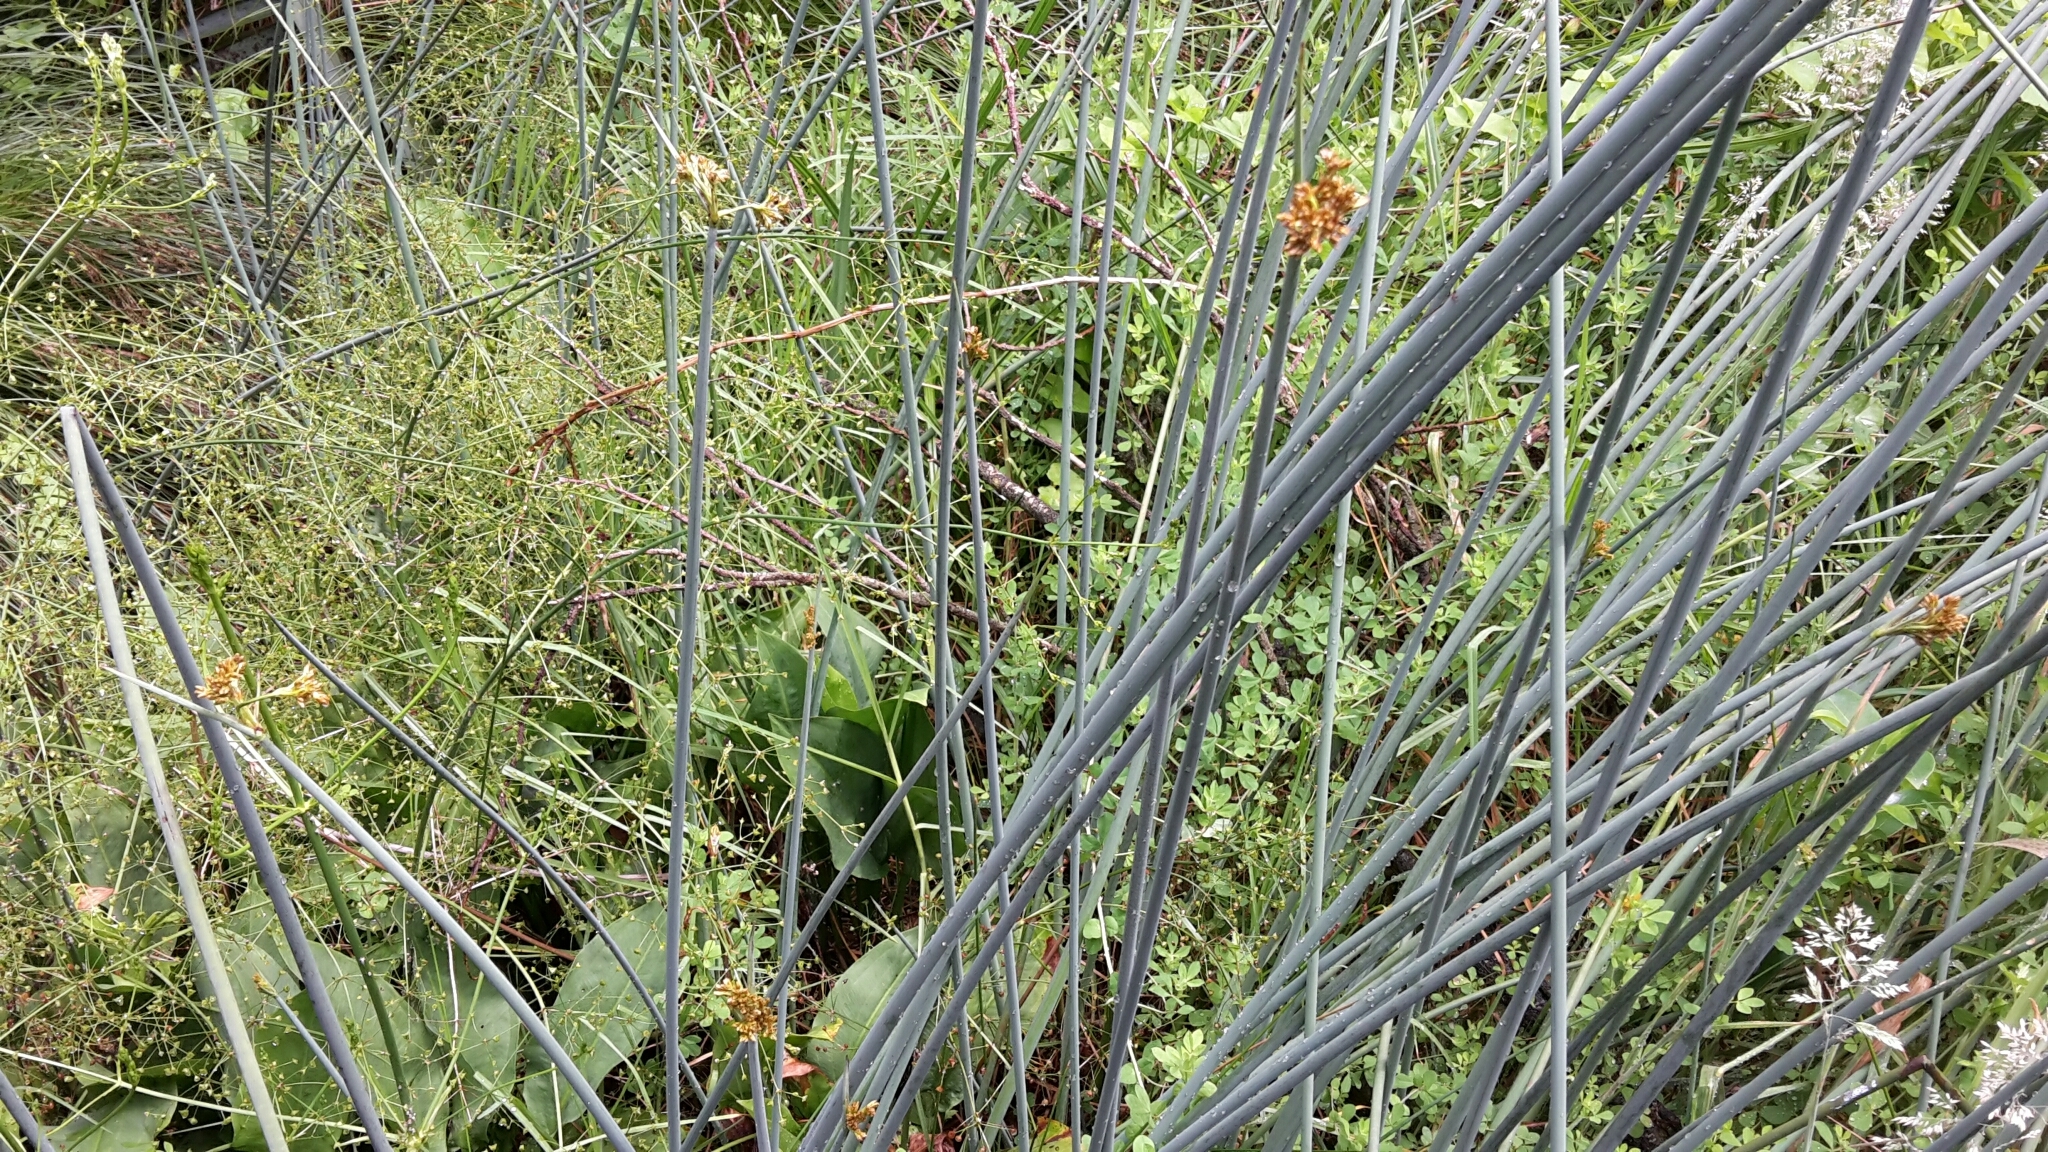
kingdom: Plantae
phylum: Tracheophyta
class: Liliopsida
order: Poales
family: Cyperaceae
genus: Schoenoplectus
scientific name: Schoenoplectus tabernaemontani
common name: Grey club-rush
